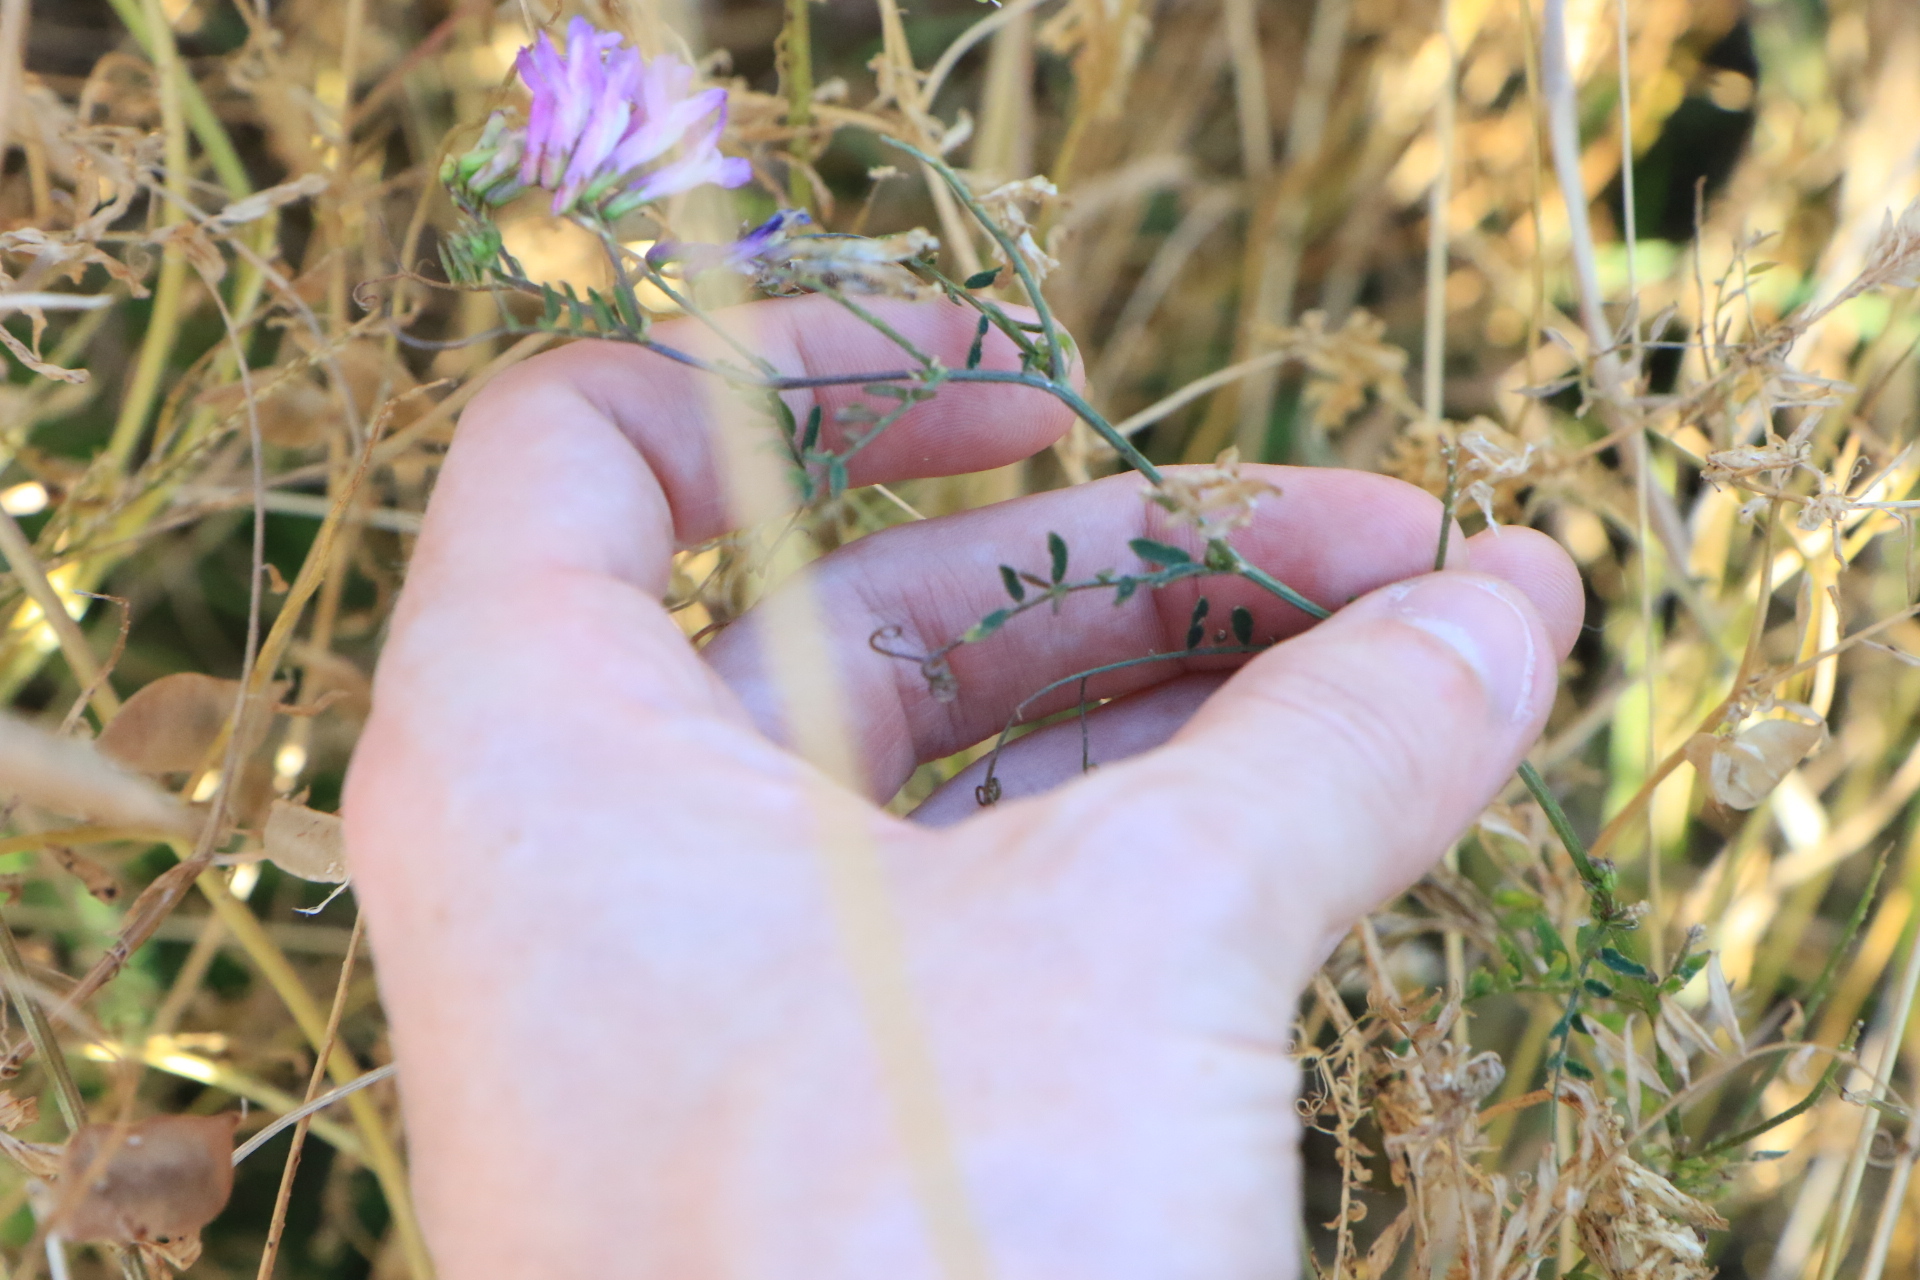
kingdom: Plantae
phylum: Tracheophyta
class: Magnoliopsida
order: Fabales
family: Fabaceae
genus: Vicia
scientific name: Vicia villosa
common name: Fodder vetch
